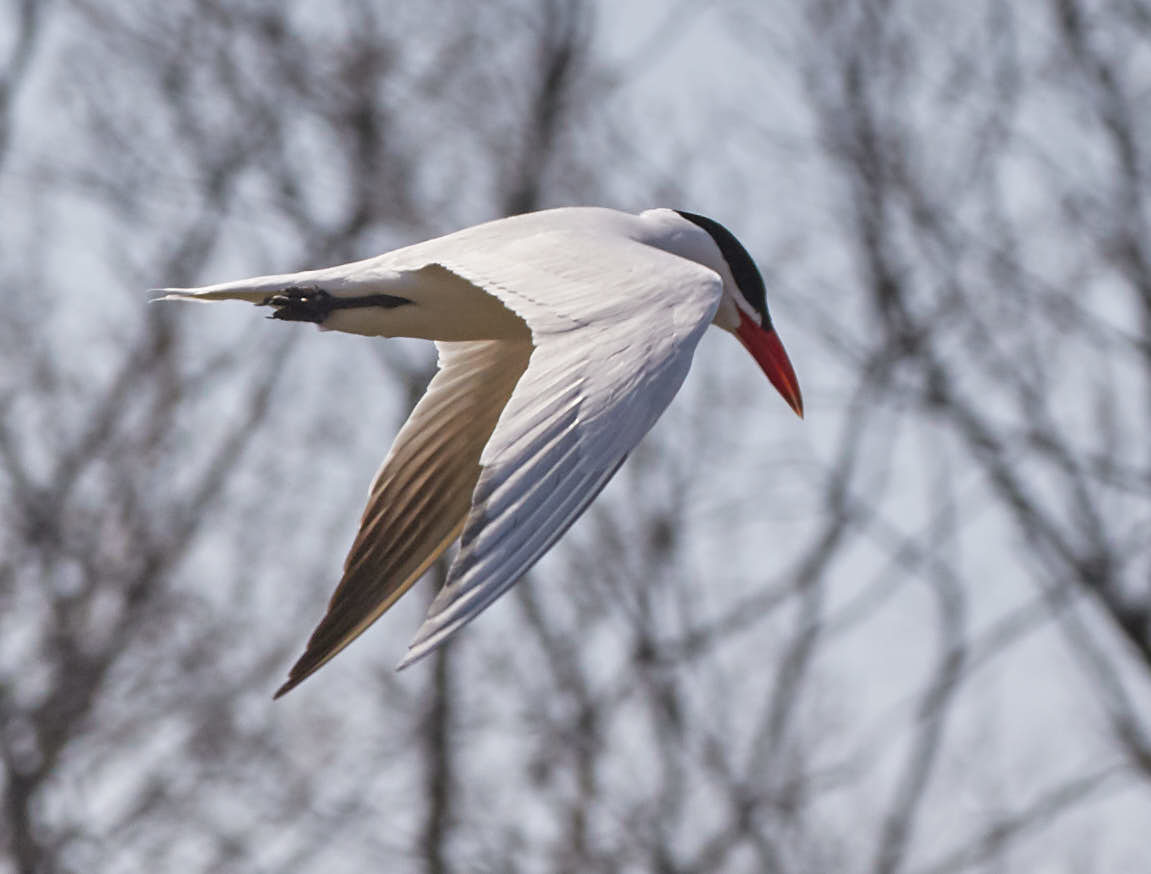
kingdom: Animalia
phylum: Chordata
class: Aves
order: Charadriiformes
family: Laridae
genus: Hydroprogne
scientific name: Hydroprogne caspia
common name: Caspian tern
